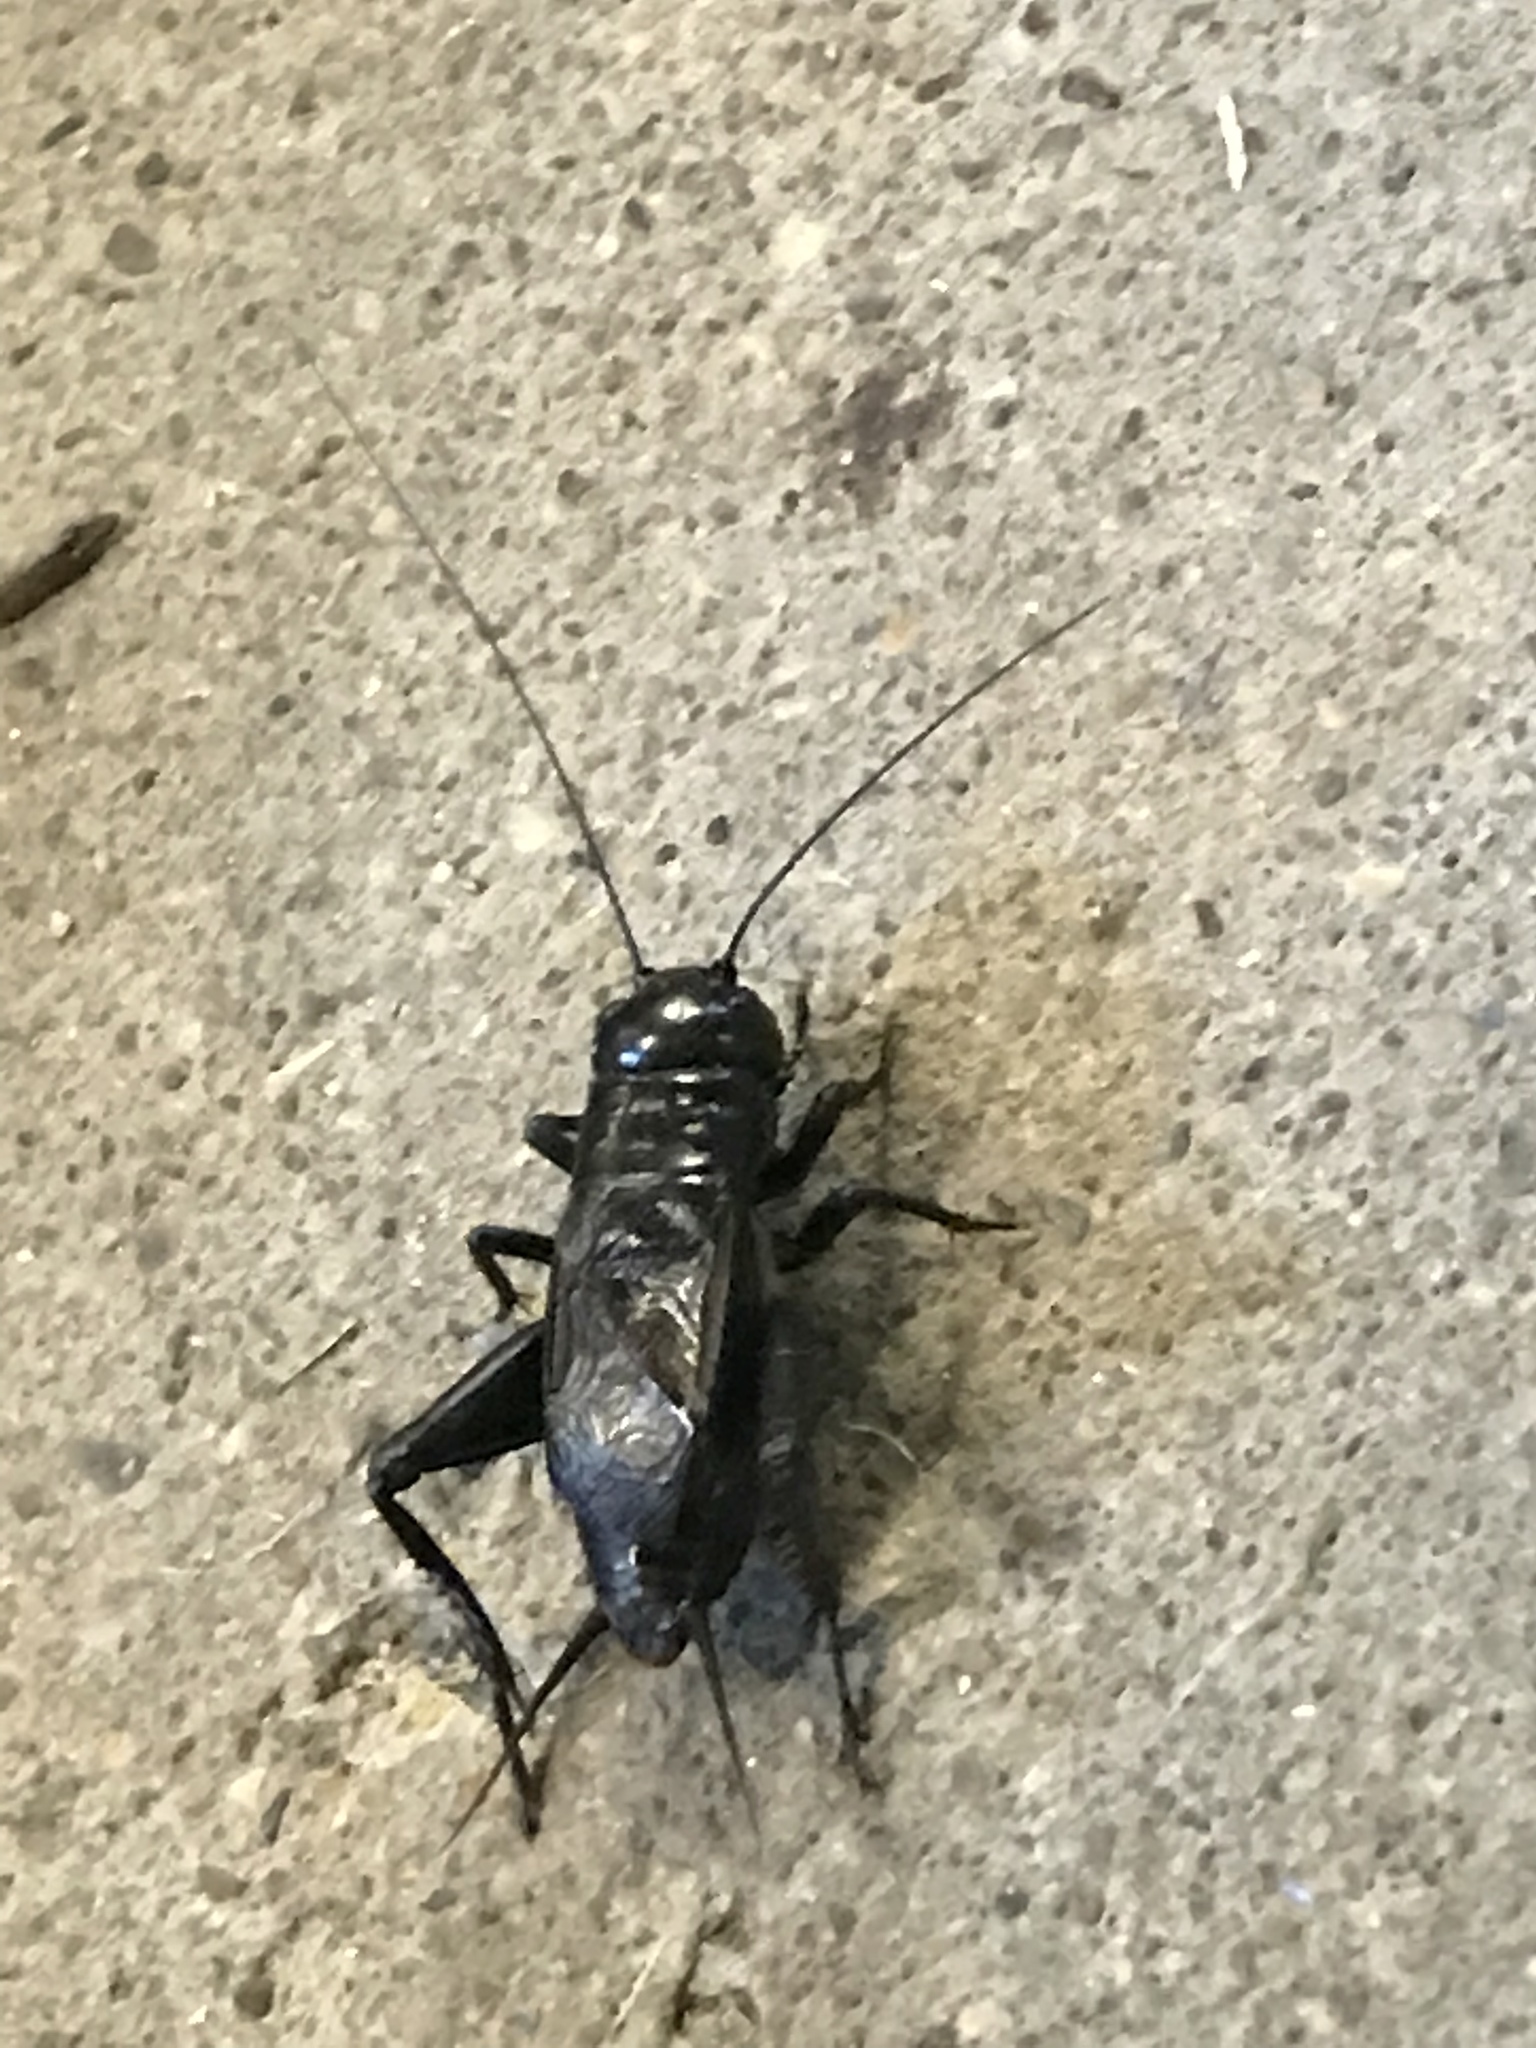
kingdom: Animalia
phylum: Arthropoda
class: Insecta
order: Orthoptera
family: Gryllidae
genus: Gryllus
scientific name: Gryllus pennsylvanicus
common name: Fall field cricket
